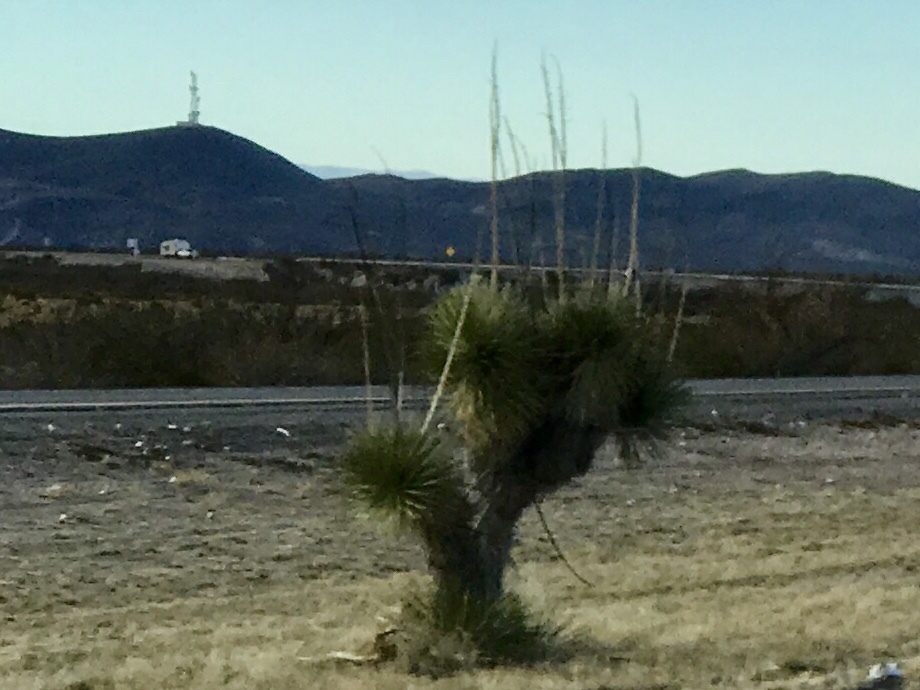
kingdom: Plantae
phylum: Tracheophyta
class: Liliopsida
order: Asparagales
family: Asparagaceae
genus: Yucca
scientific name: Yucca elata
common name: Palmella
